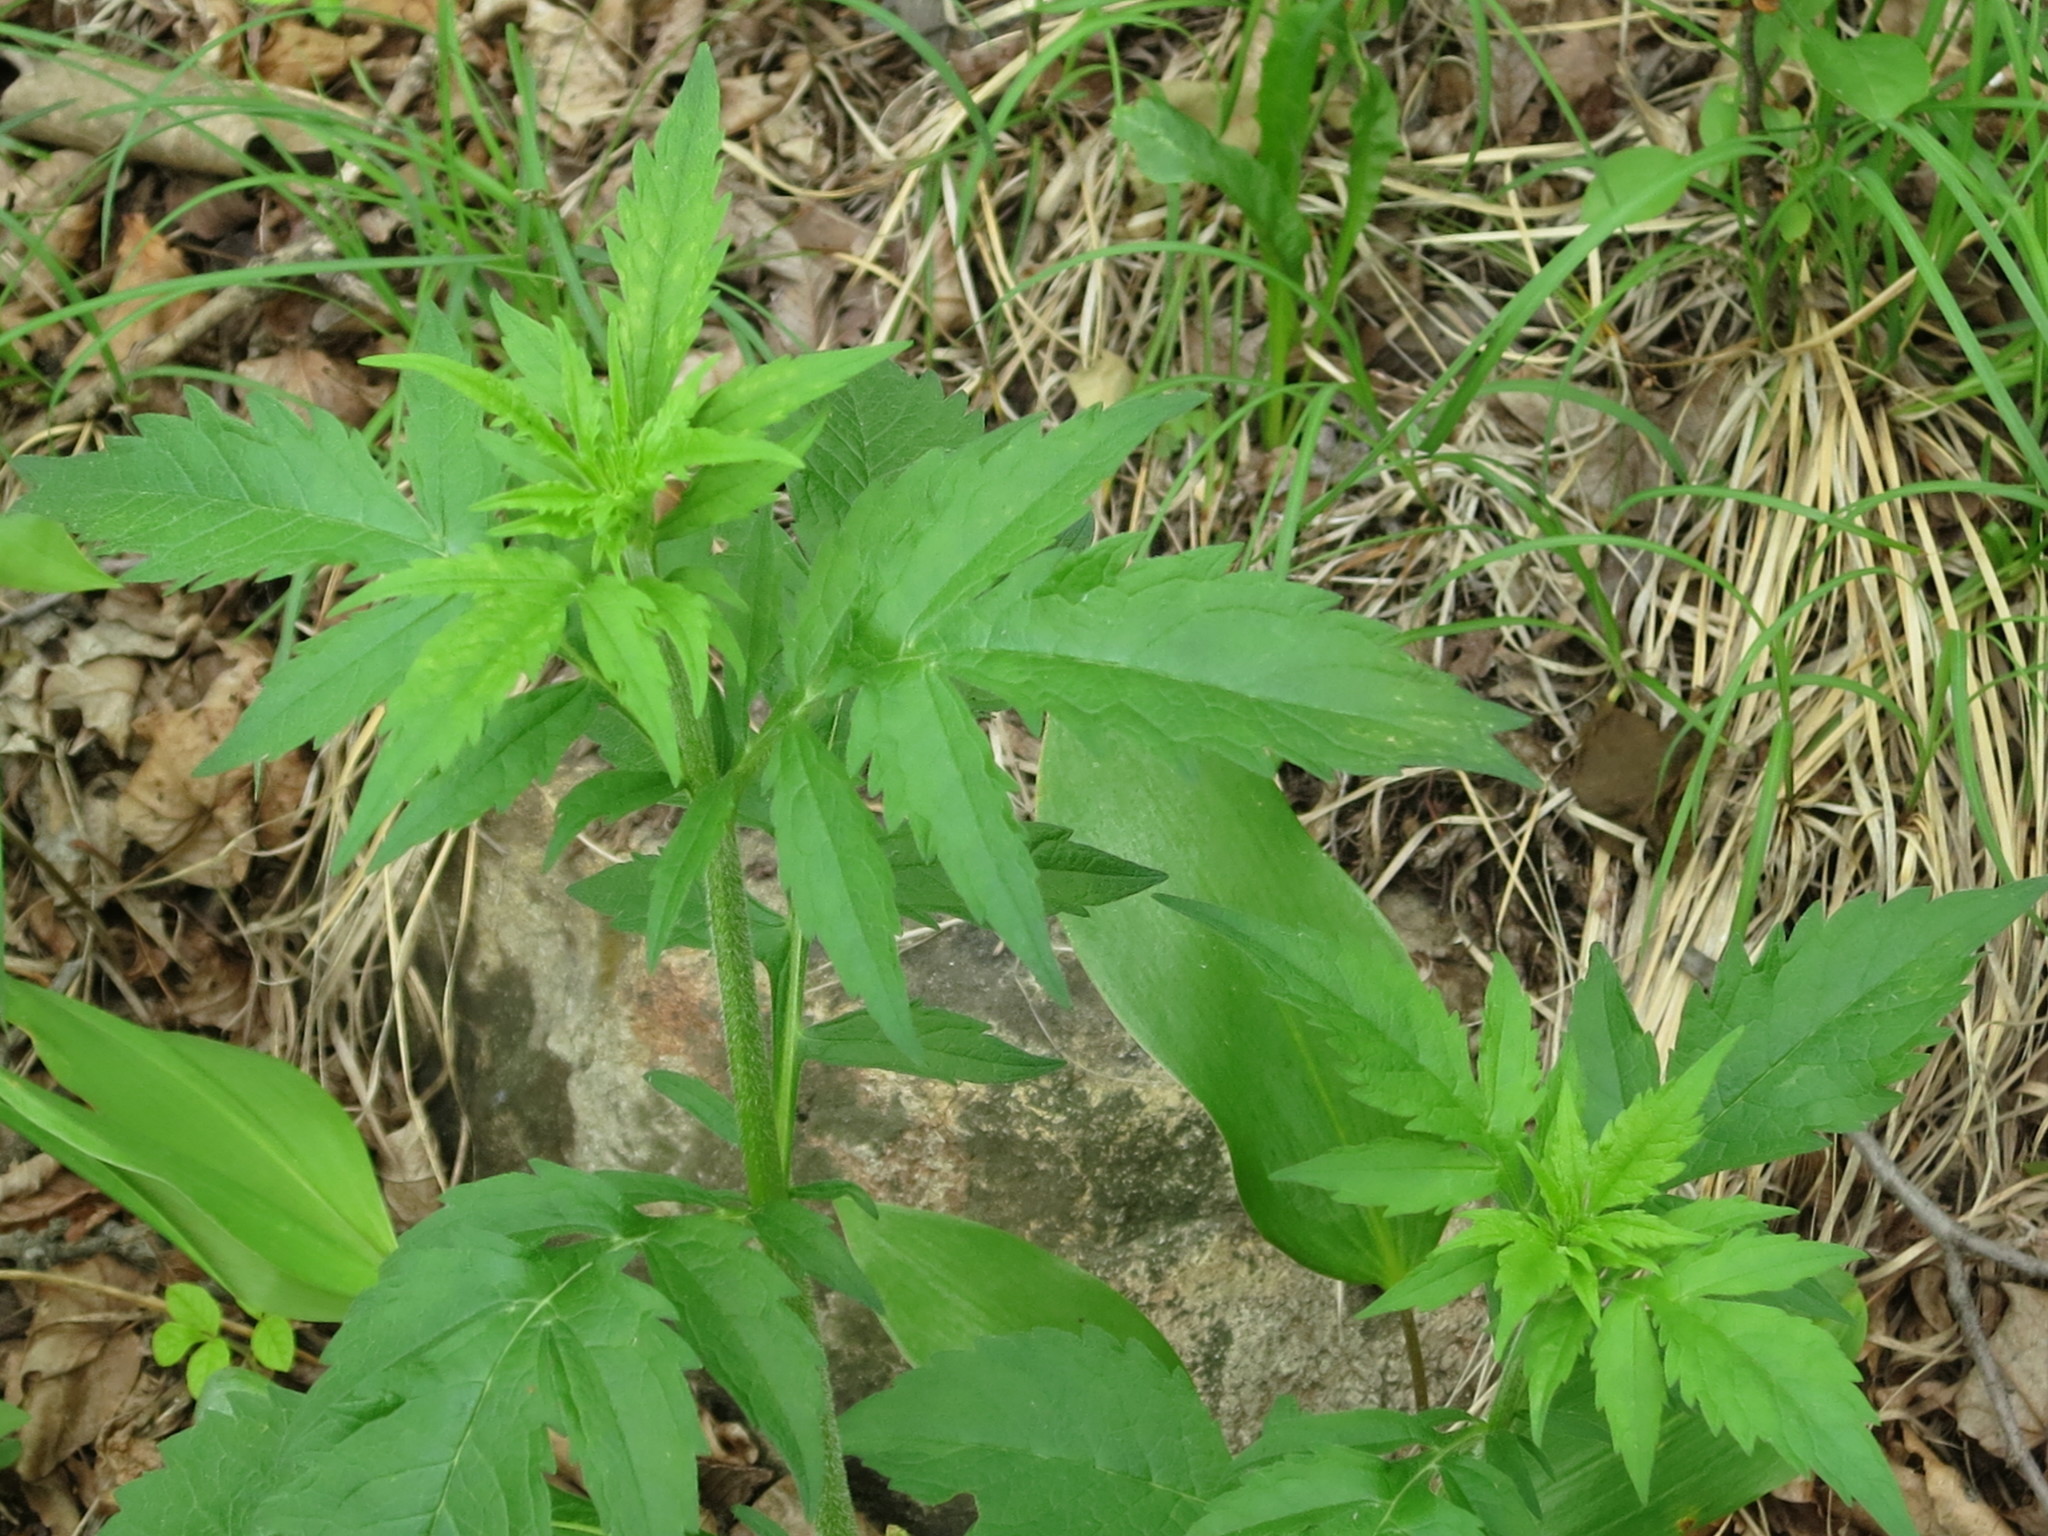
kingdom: Plantae
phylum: Tracheophyta
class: Magnoliopsida
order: Dipsacales
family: Caprifoliaceae
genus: Patrinia
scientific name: Patrinia scabiosifolia
